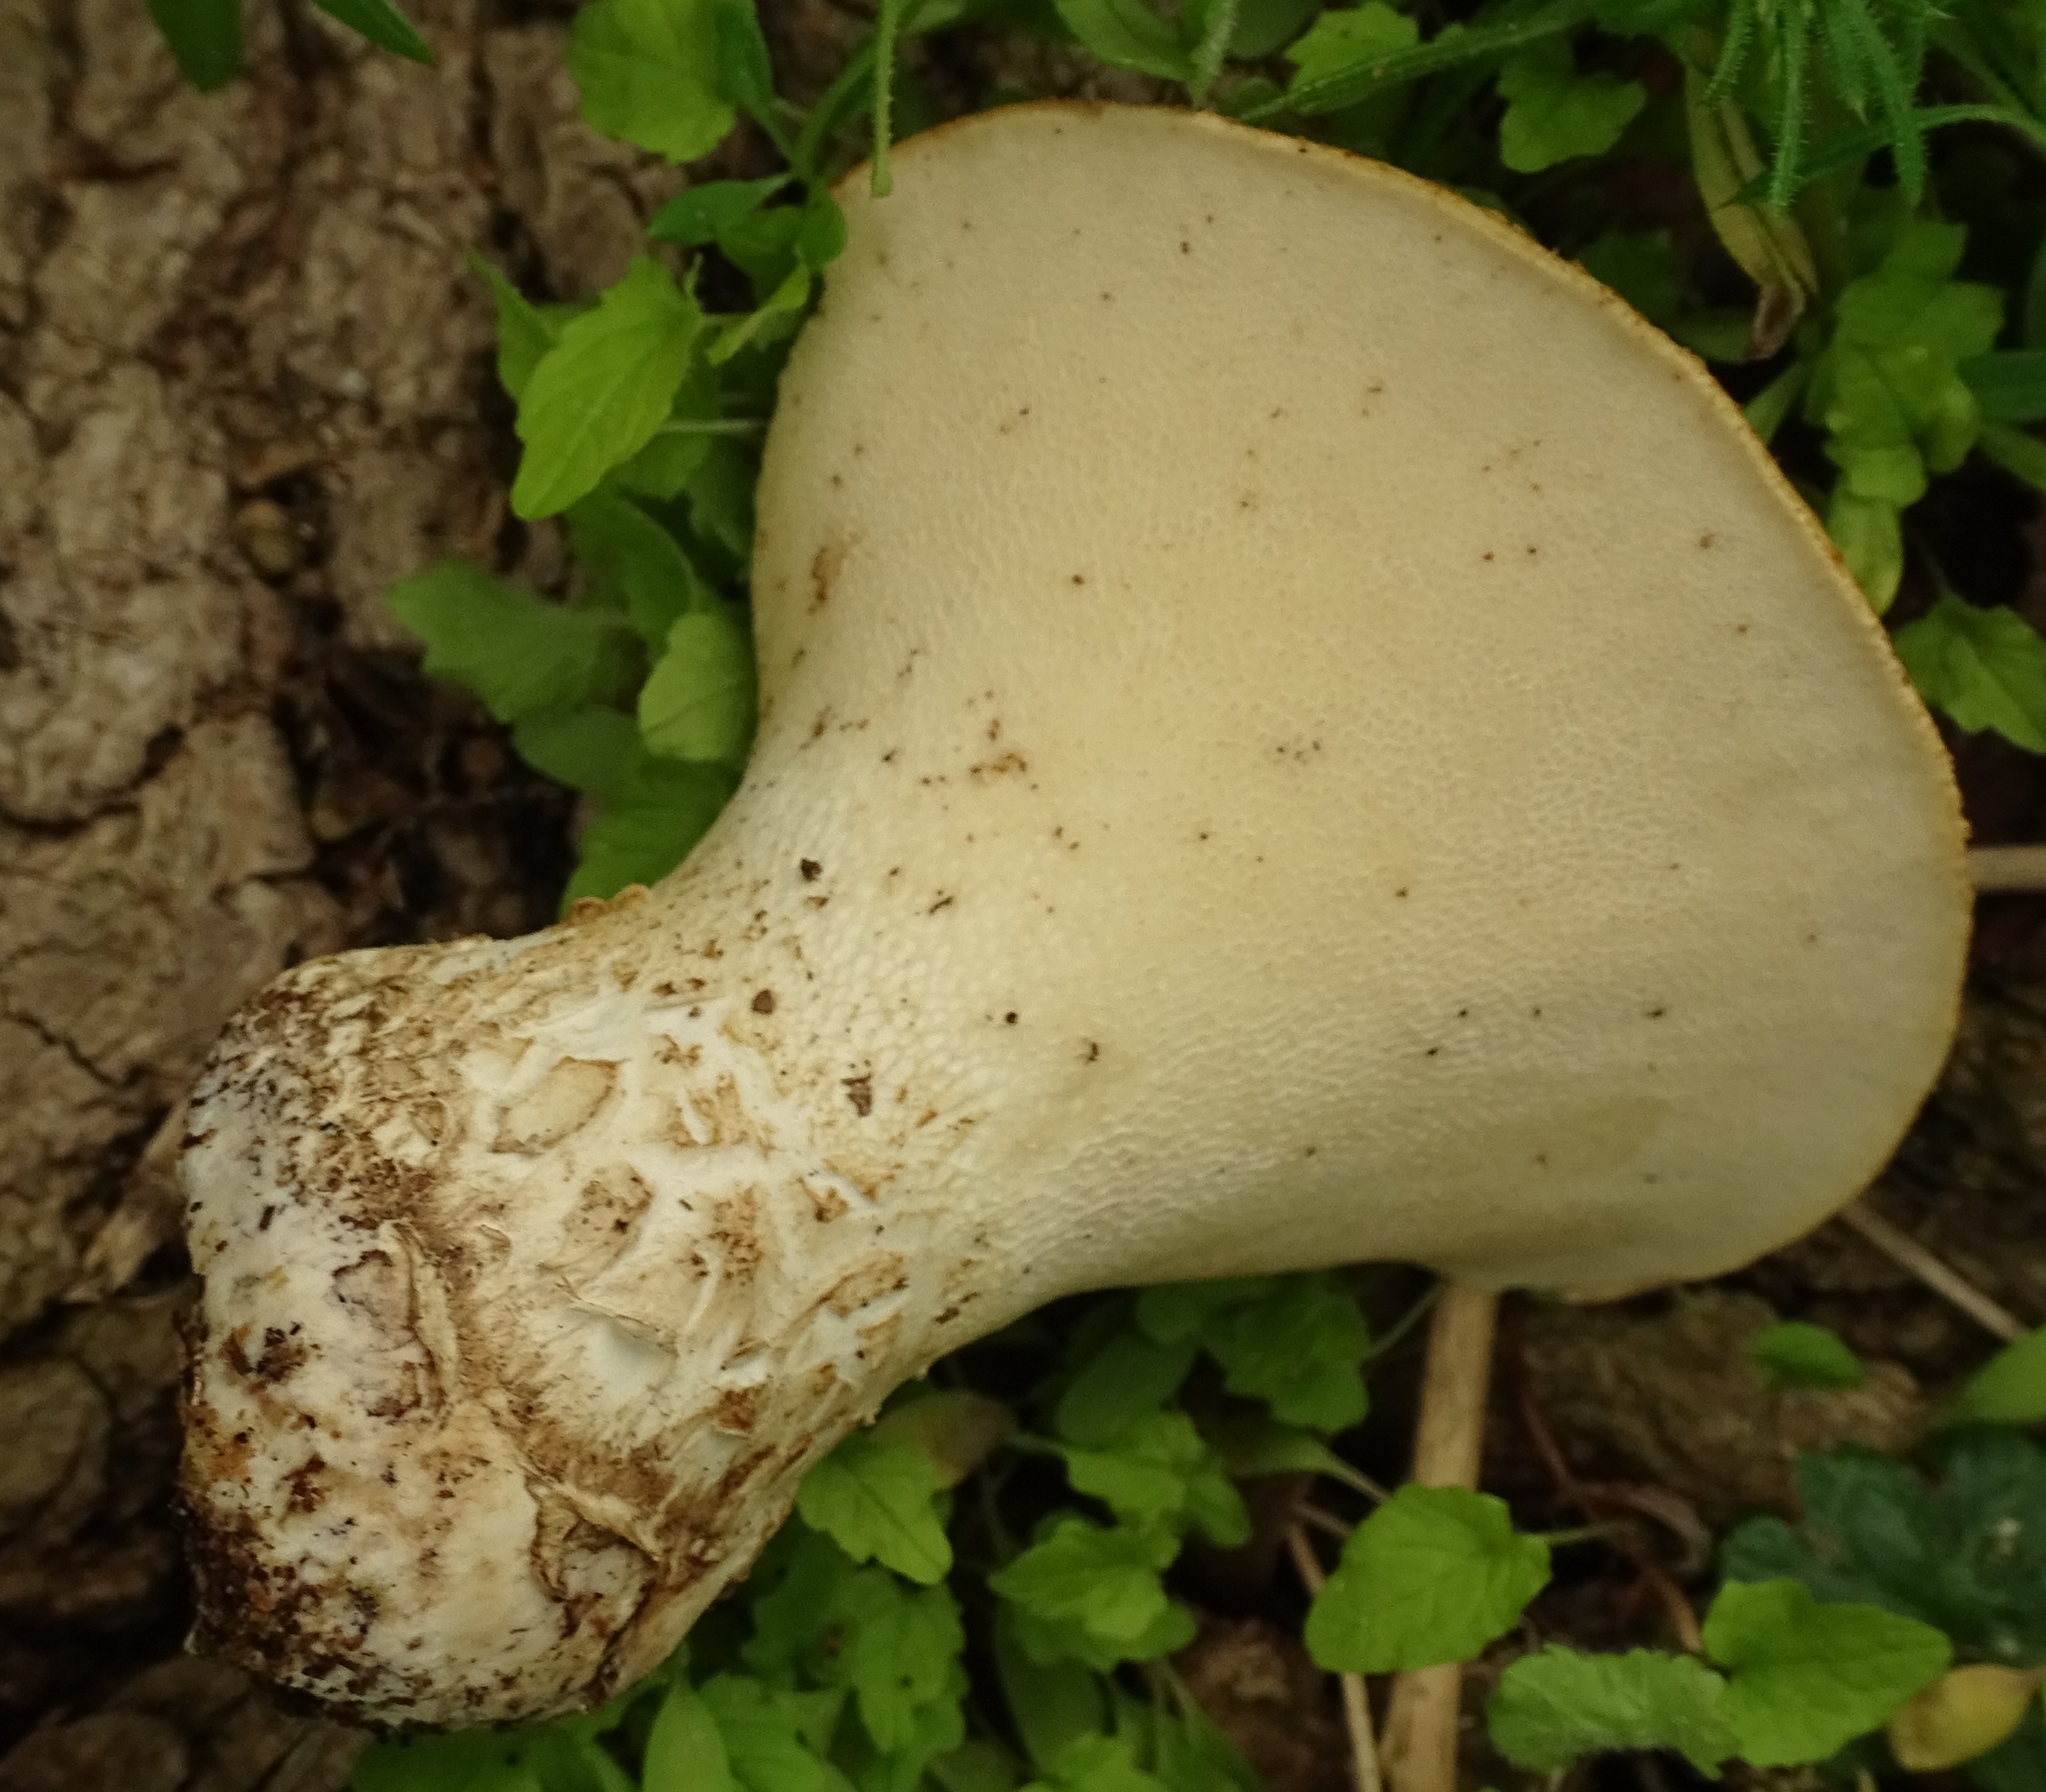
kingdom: Fungi
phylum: Basidiomycota
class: Agaricomycetes
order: Polyporales
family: Polyporaceae
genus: Cerioporus
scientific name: Cerioporus squamosus
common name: Dryad's saddle
